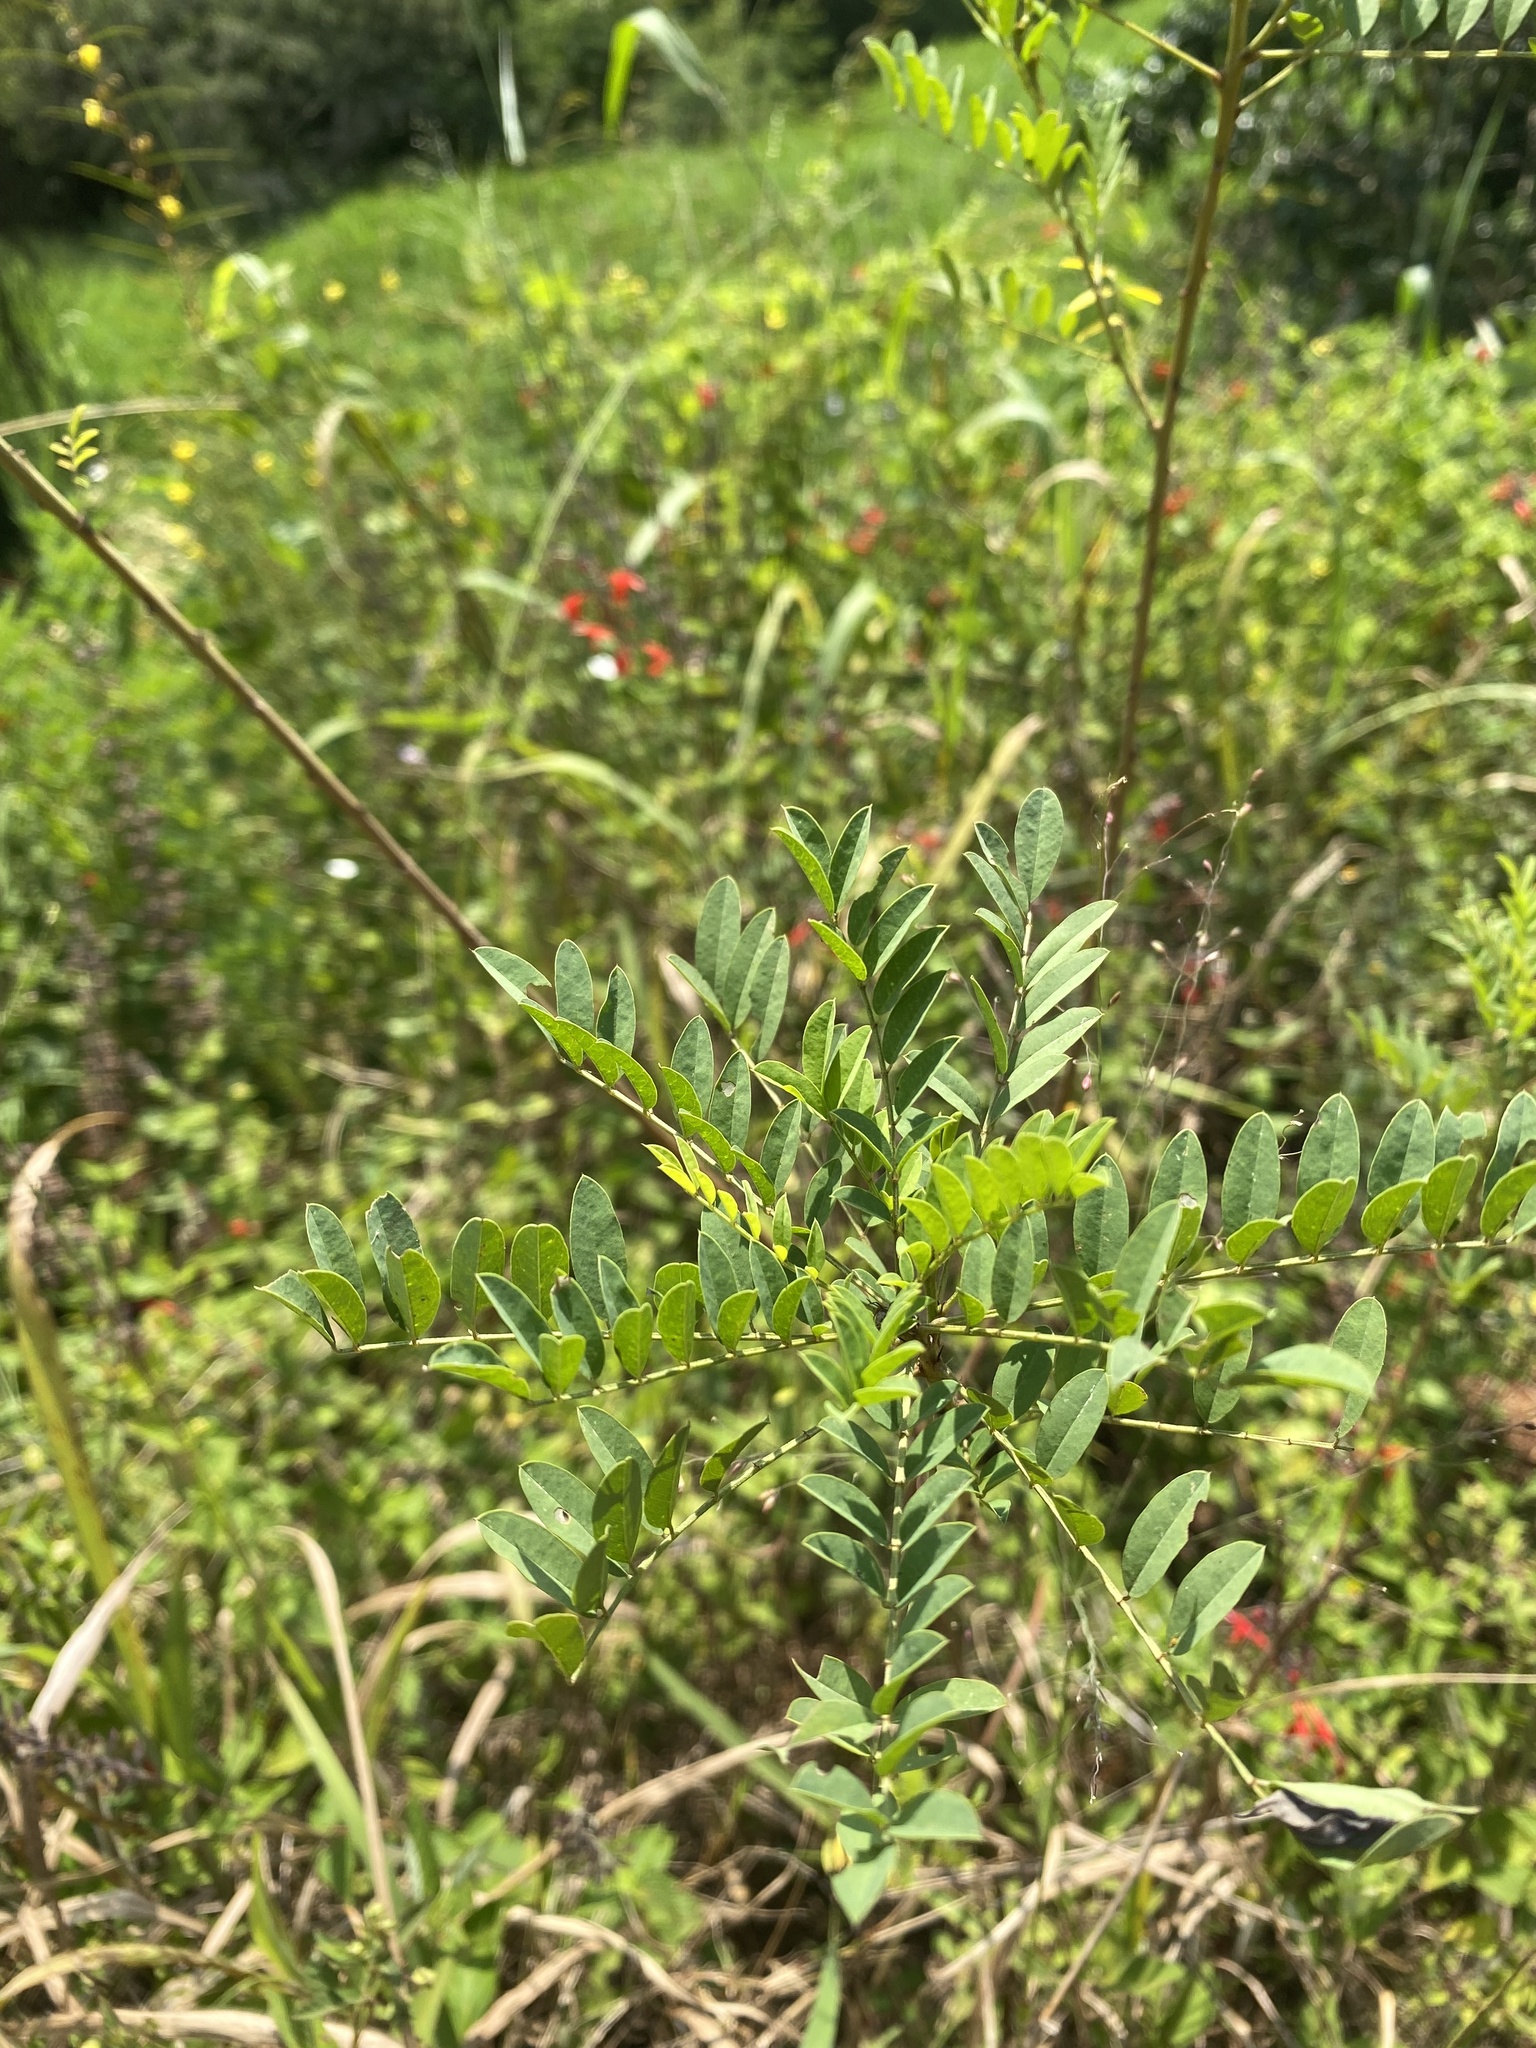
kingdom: Plantae
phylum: Tracheophyta
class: Magnoliopsida
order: Fabales
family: Fabaceae
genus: Chamaecrista
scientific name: Chamaecrista mimosoides
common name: Fish-bone cassia
